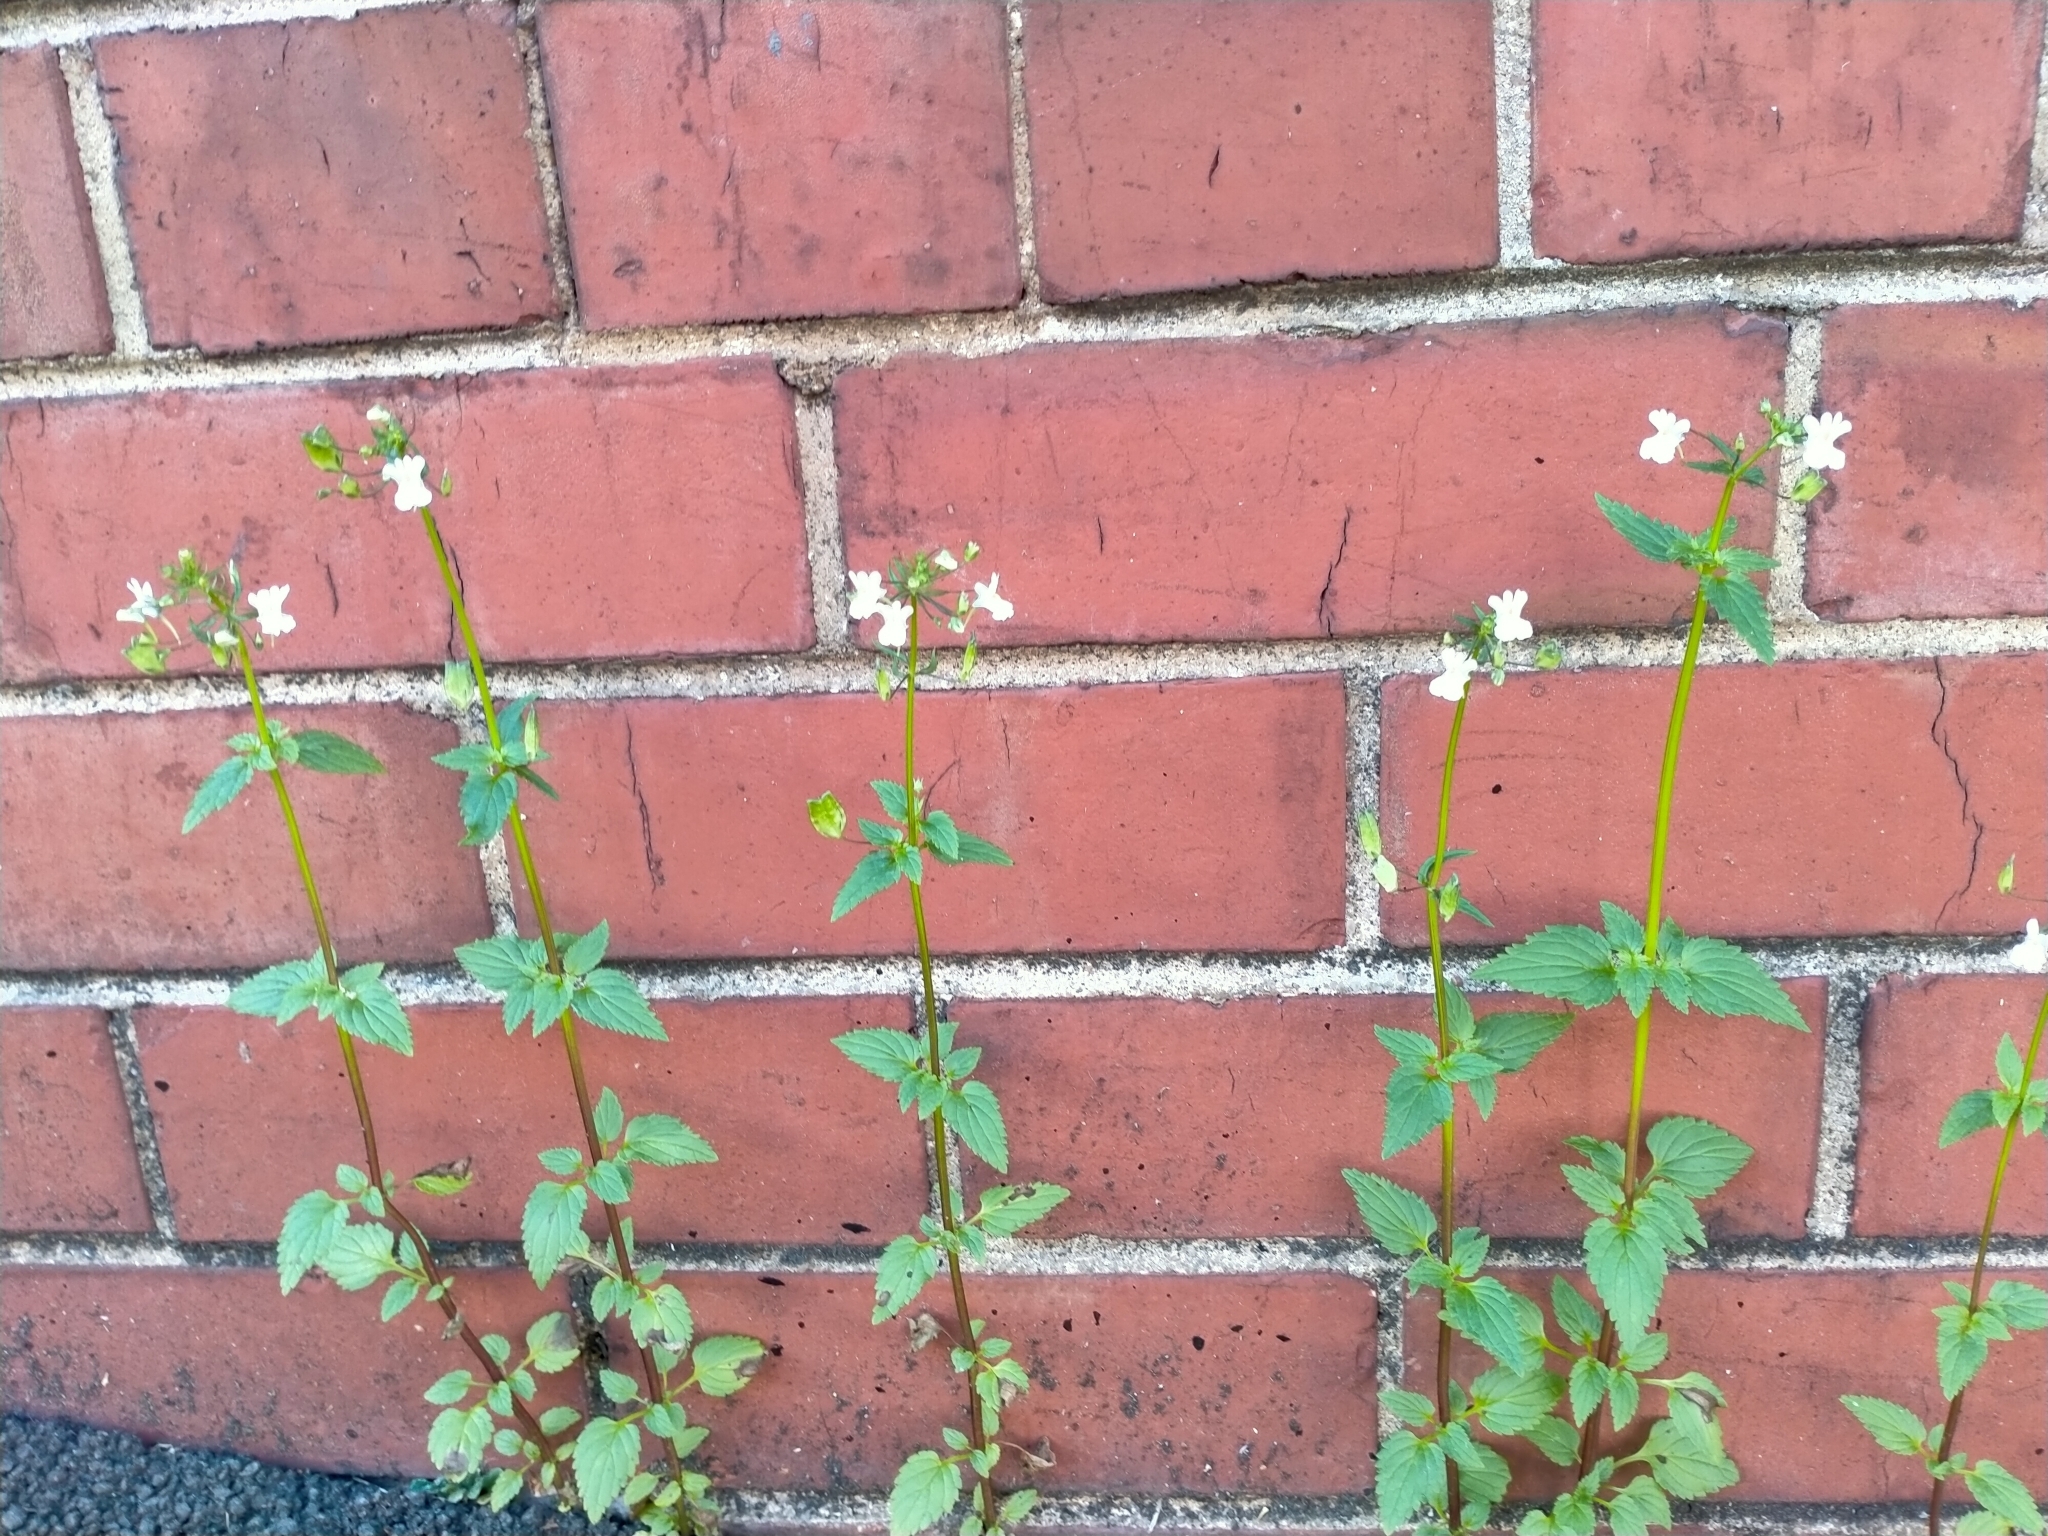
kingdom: Plantae
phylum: Tracheophyta
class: Magnoliopsida
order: Lamiales
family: Scrophulariaceae
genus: Nemesia
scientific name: Nemesia floribunda
